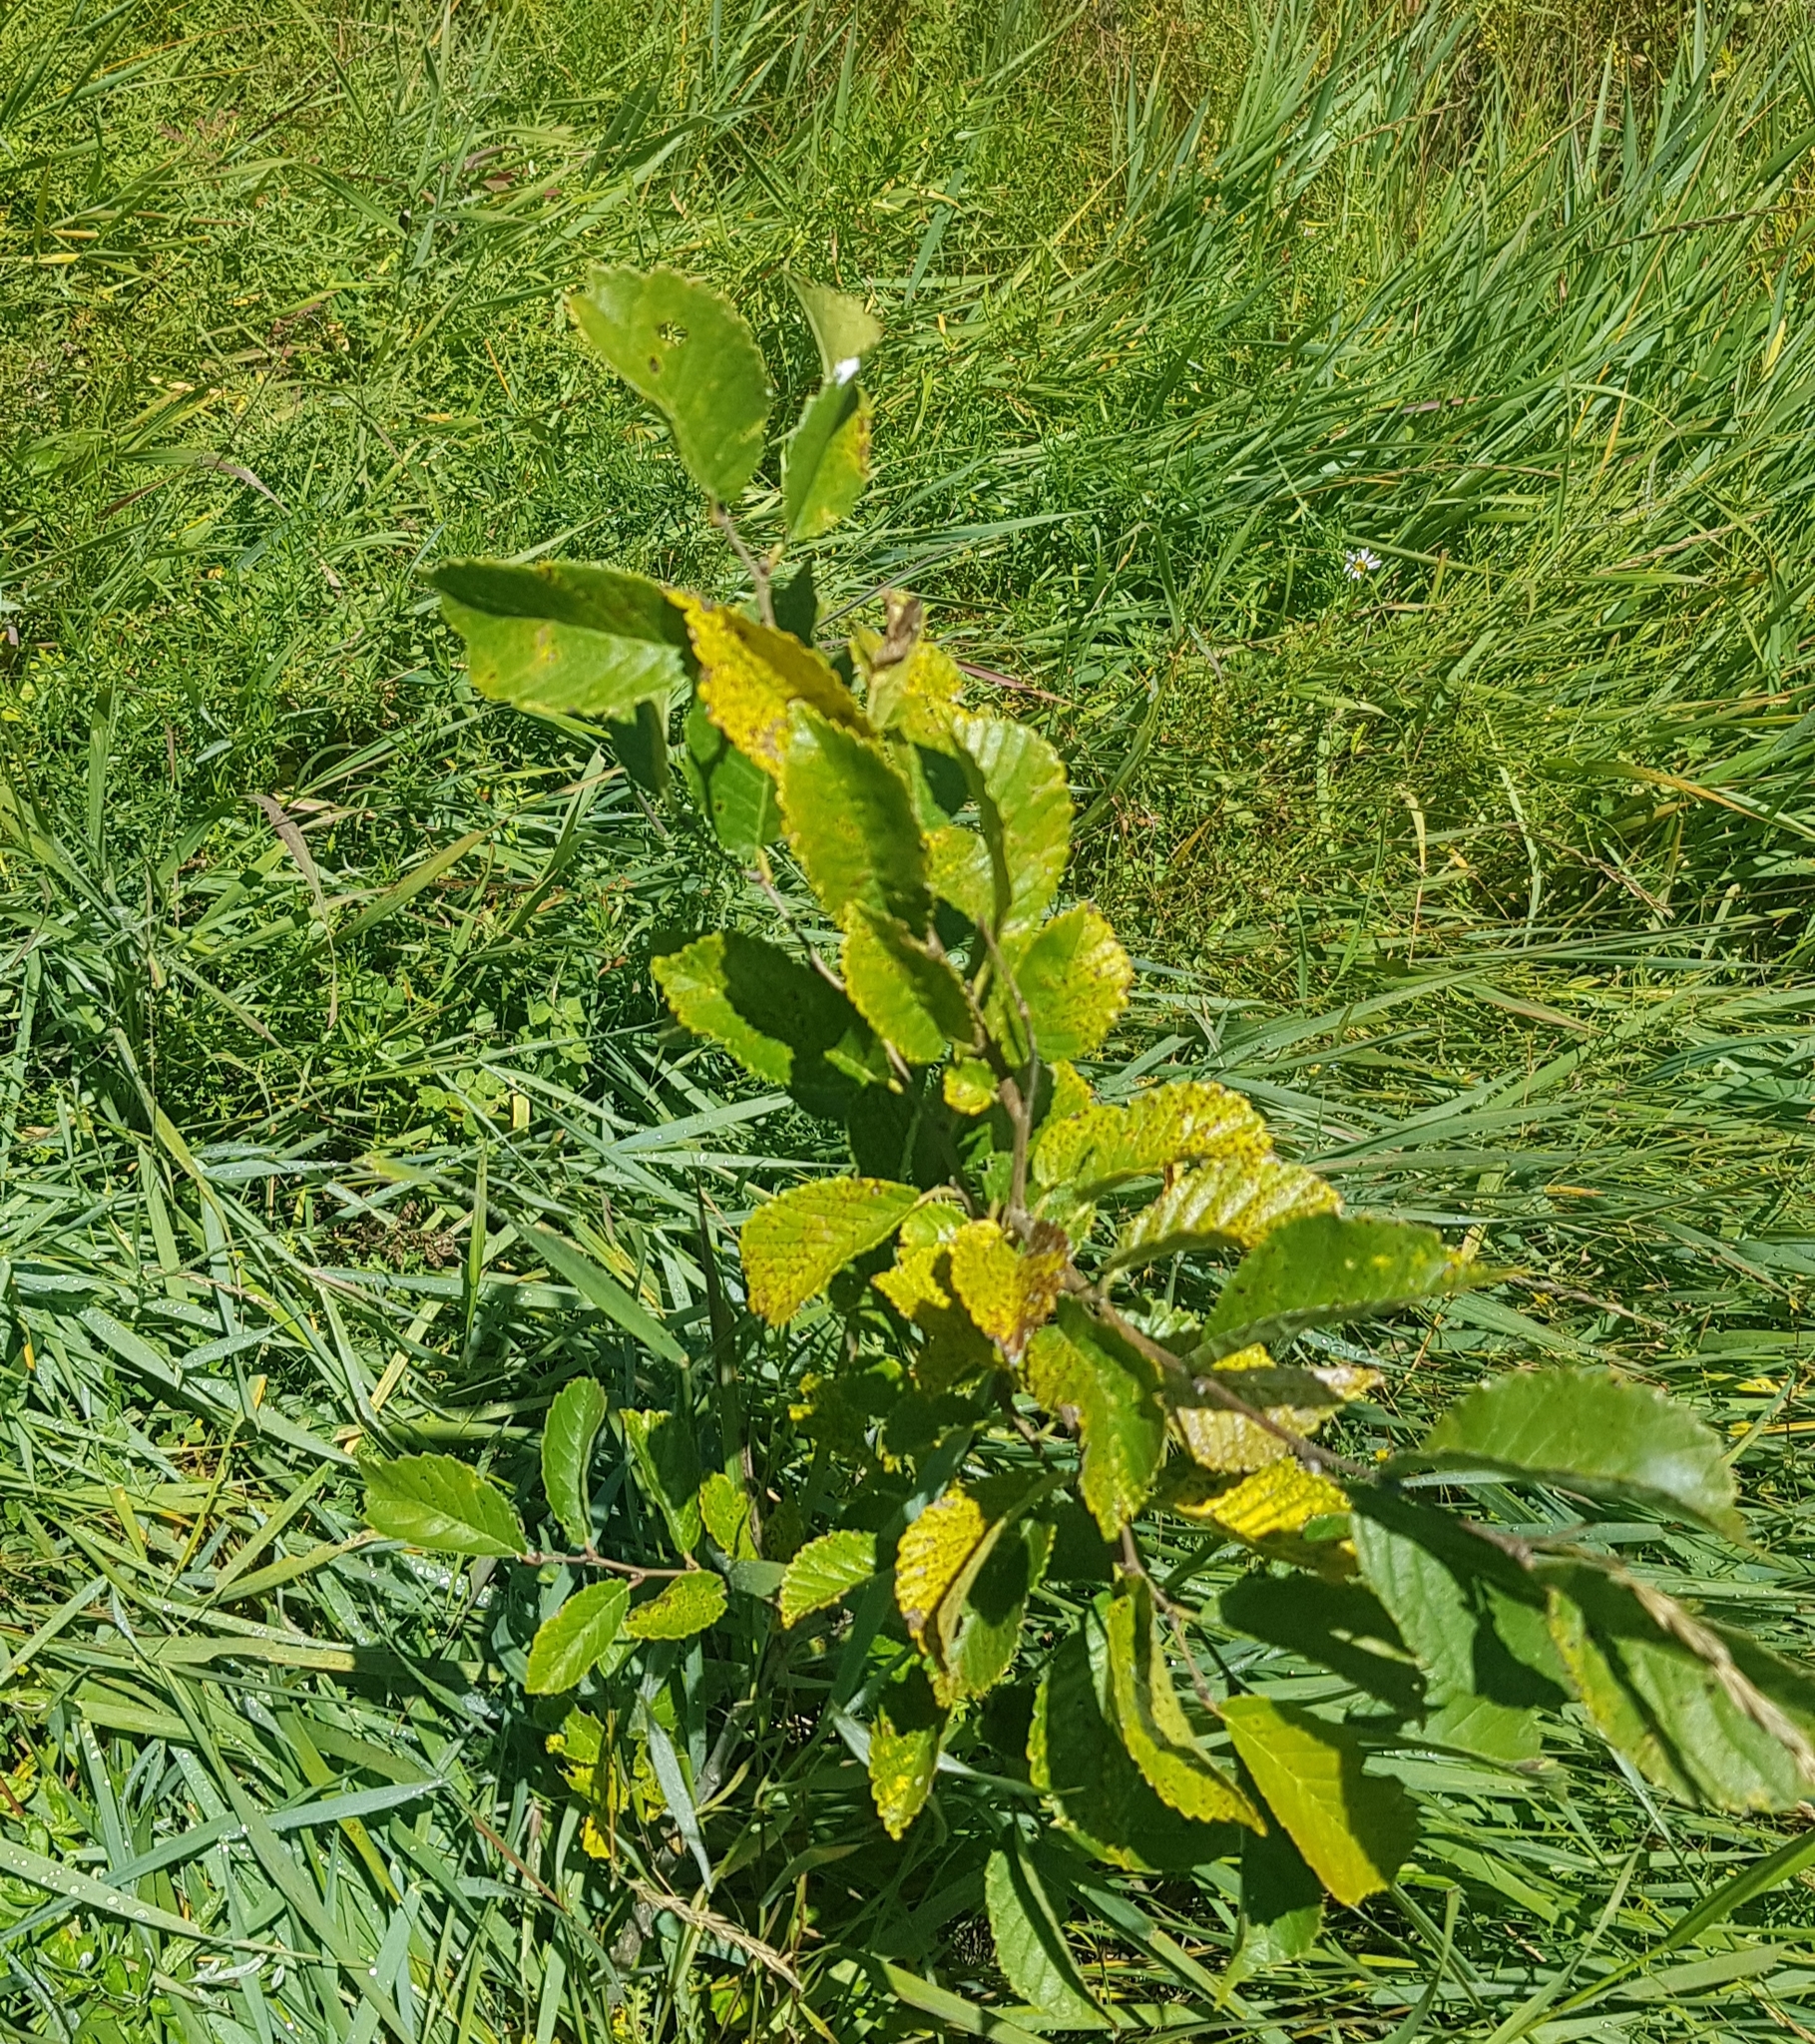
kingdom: Plantae
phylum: Tracheophyta
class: Magnoliopsida
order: Rosales
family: Ulmaceae
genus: Ulmus
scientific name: Ulmus davidiana
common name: Japanese elm
